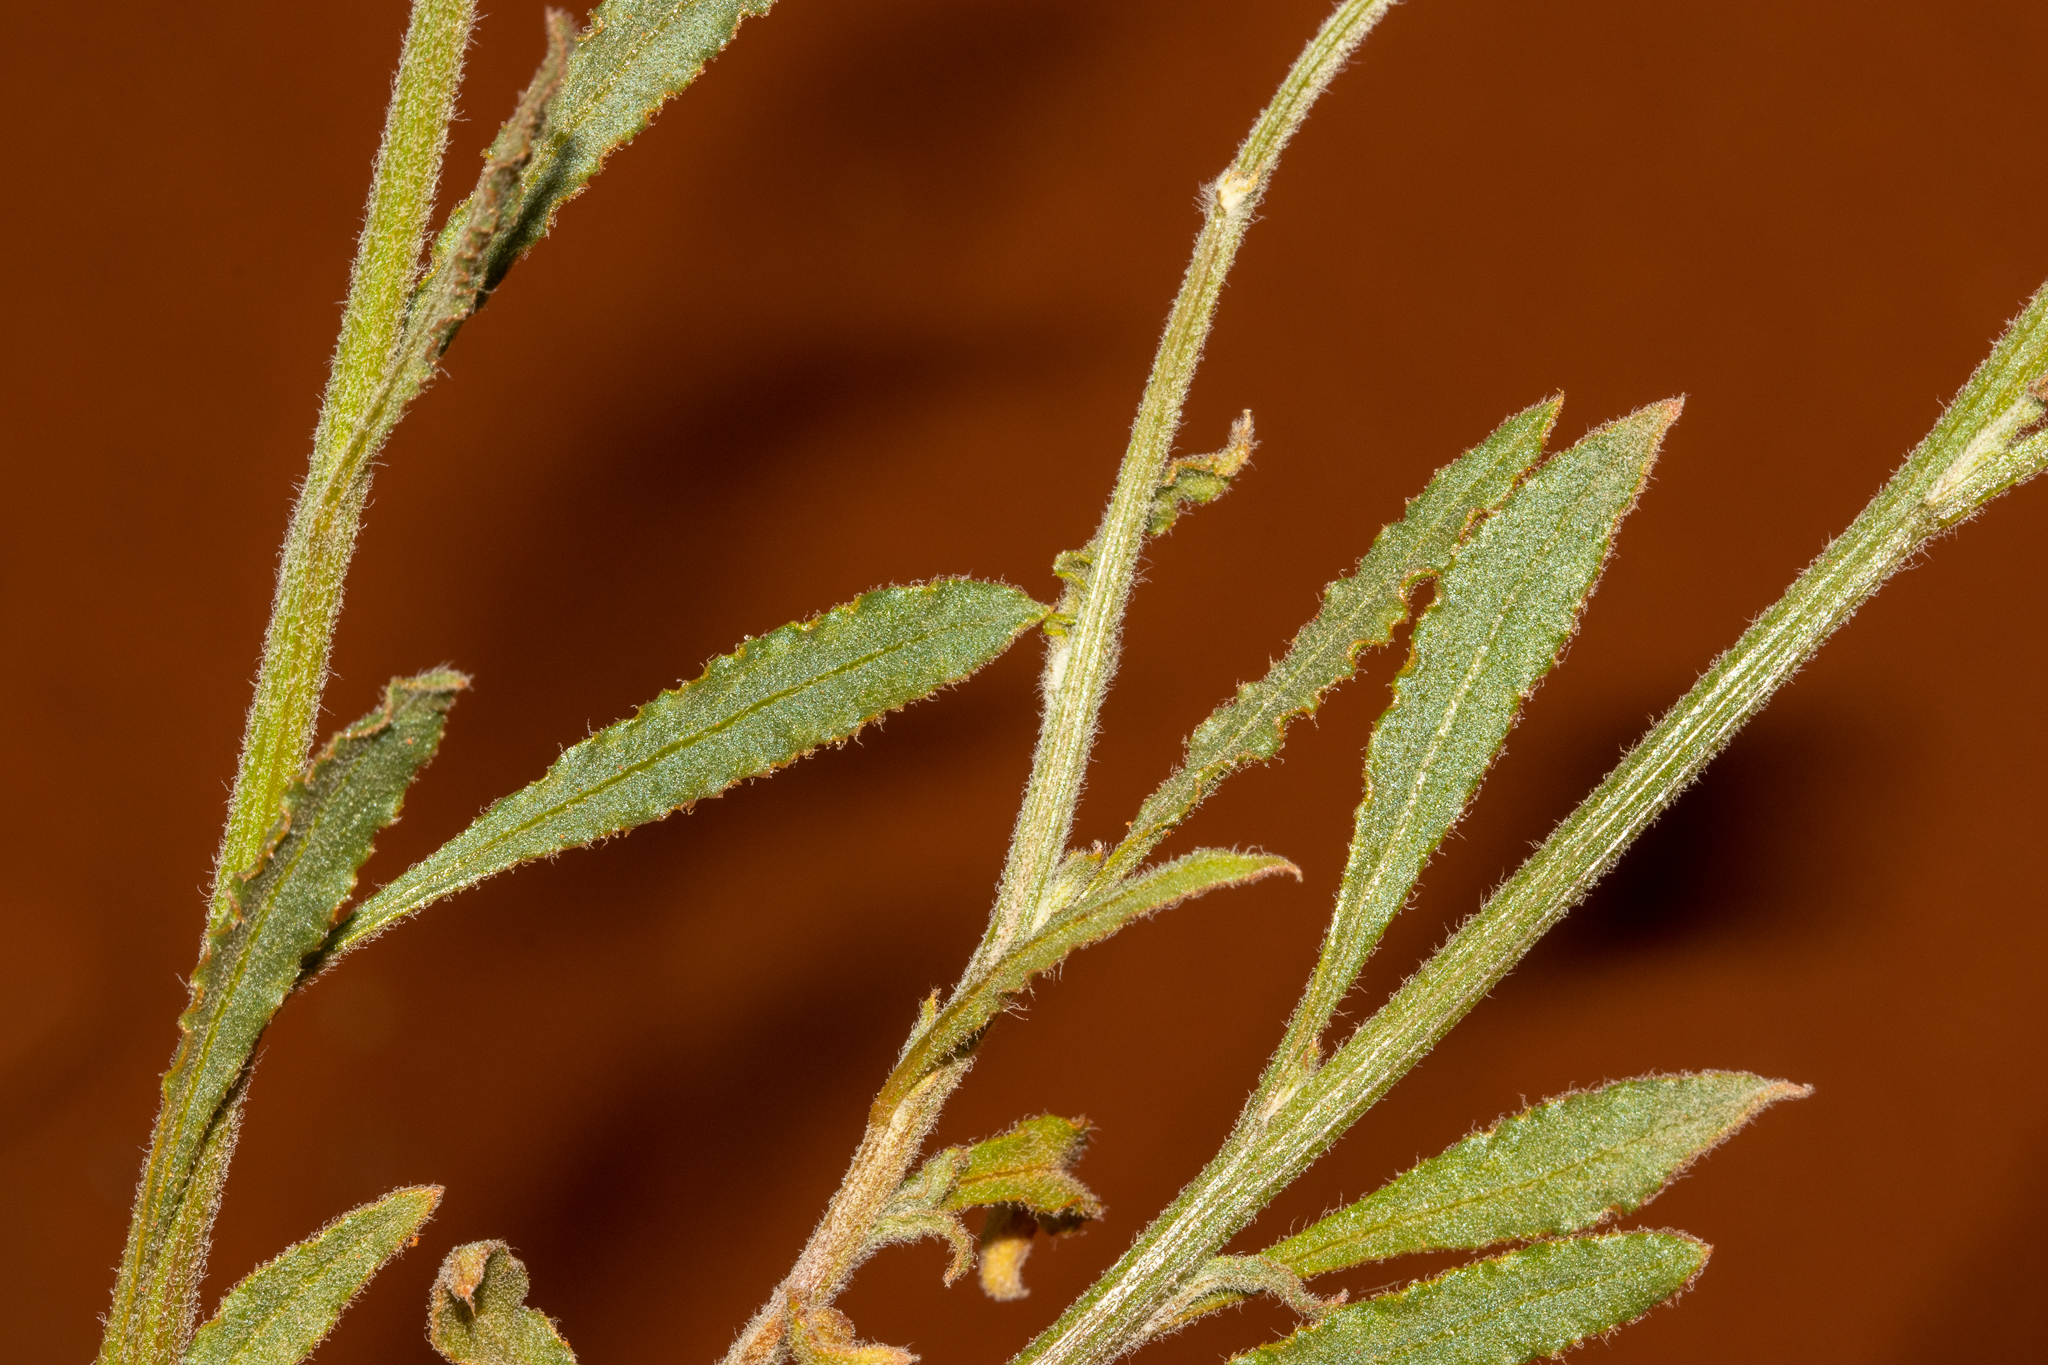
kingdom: Plantae
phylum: Tracheophyta
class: Magnoliopsida
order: Caryophyllales
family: Amaranthaceae
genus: Ptilotus
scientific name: Ptilotus polystachyus
